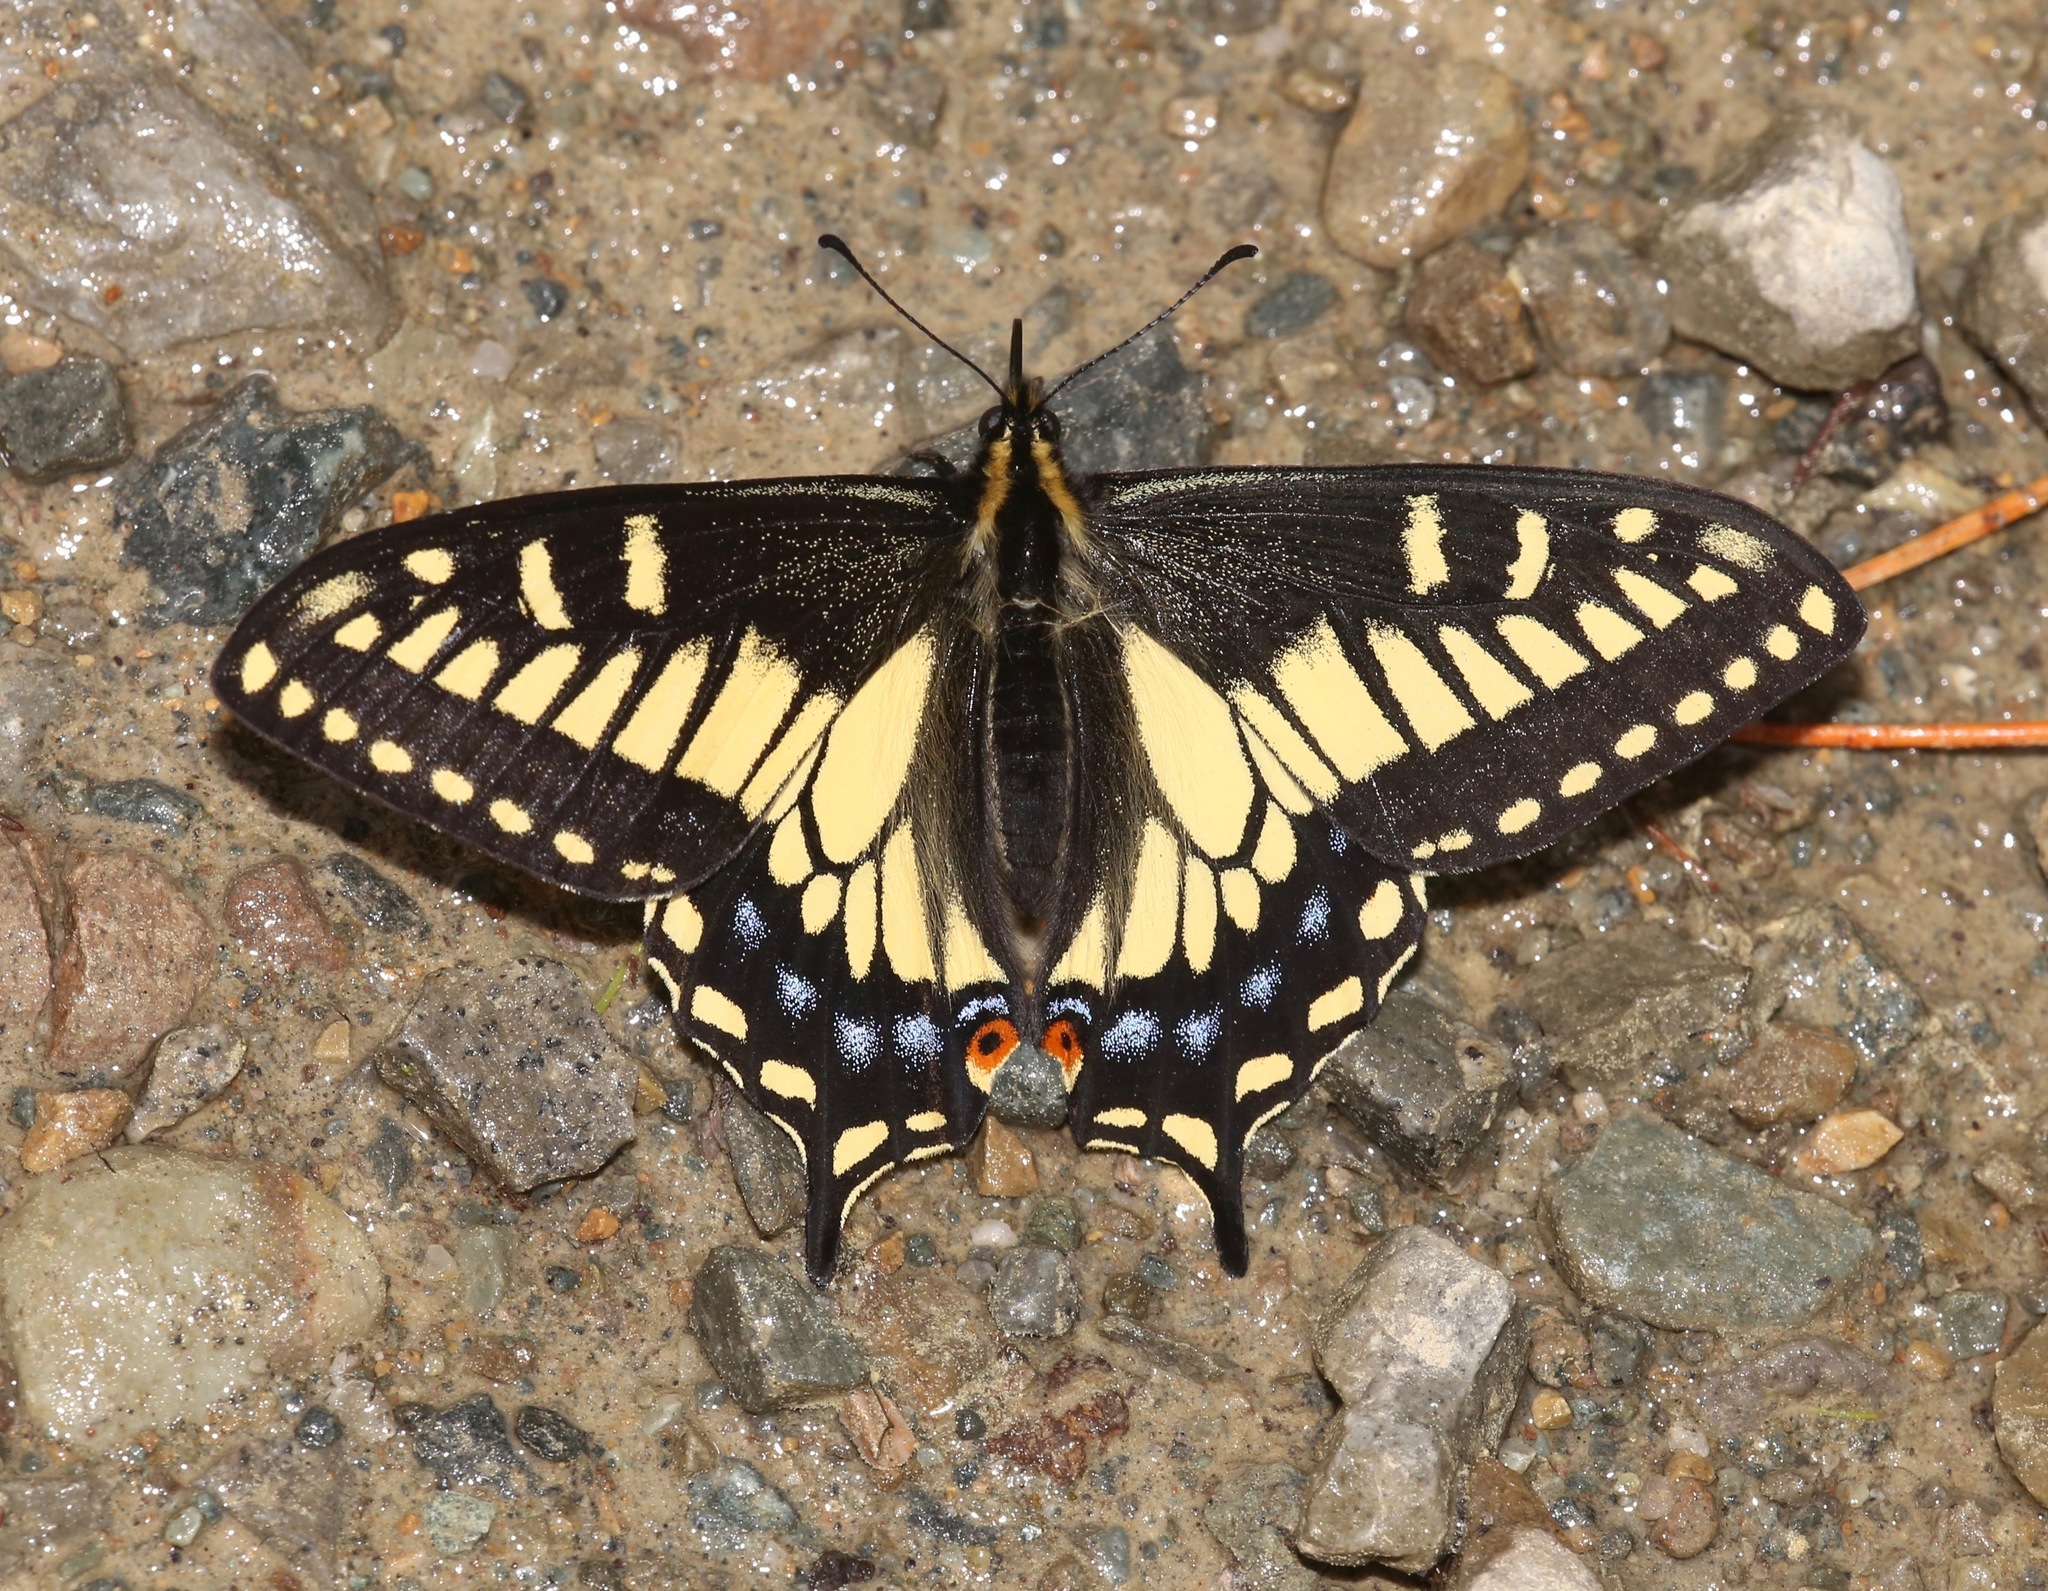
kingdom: Animalia
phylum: Arthropoda
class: Insecta
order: Lepidoptera
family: Papilionidae
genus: Papilio
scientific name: Papilio zelicaon
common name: Anise swallowtail
